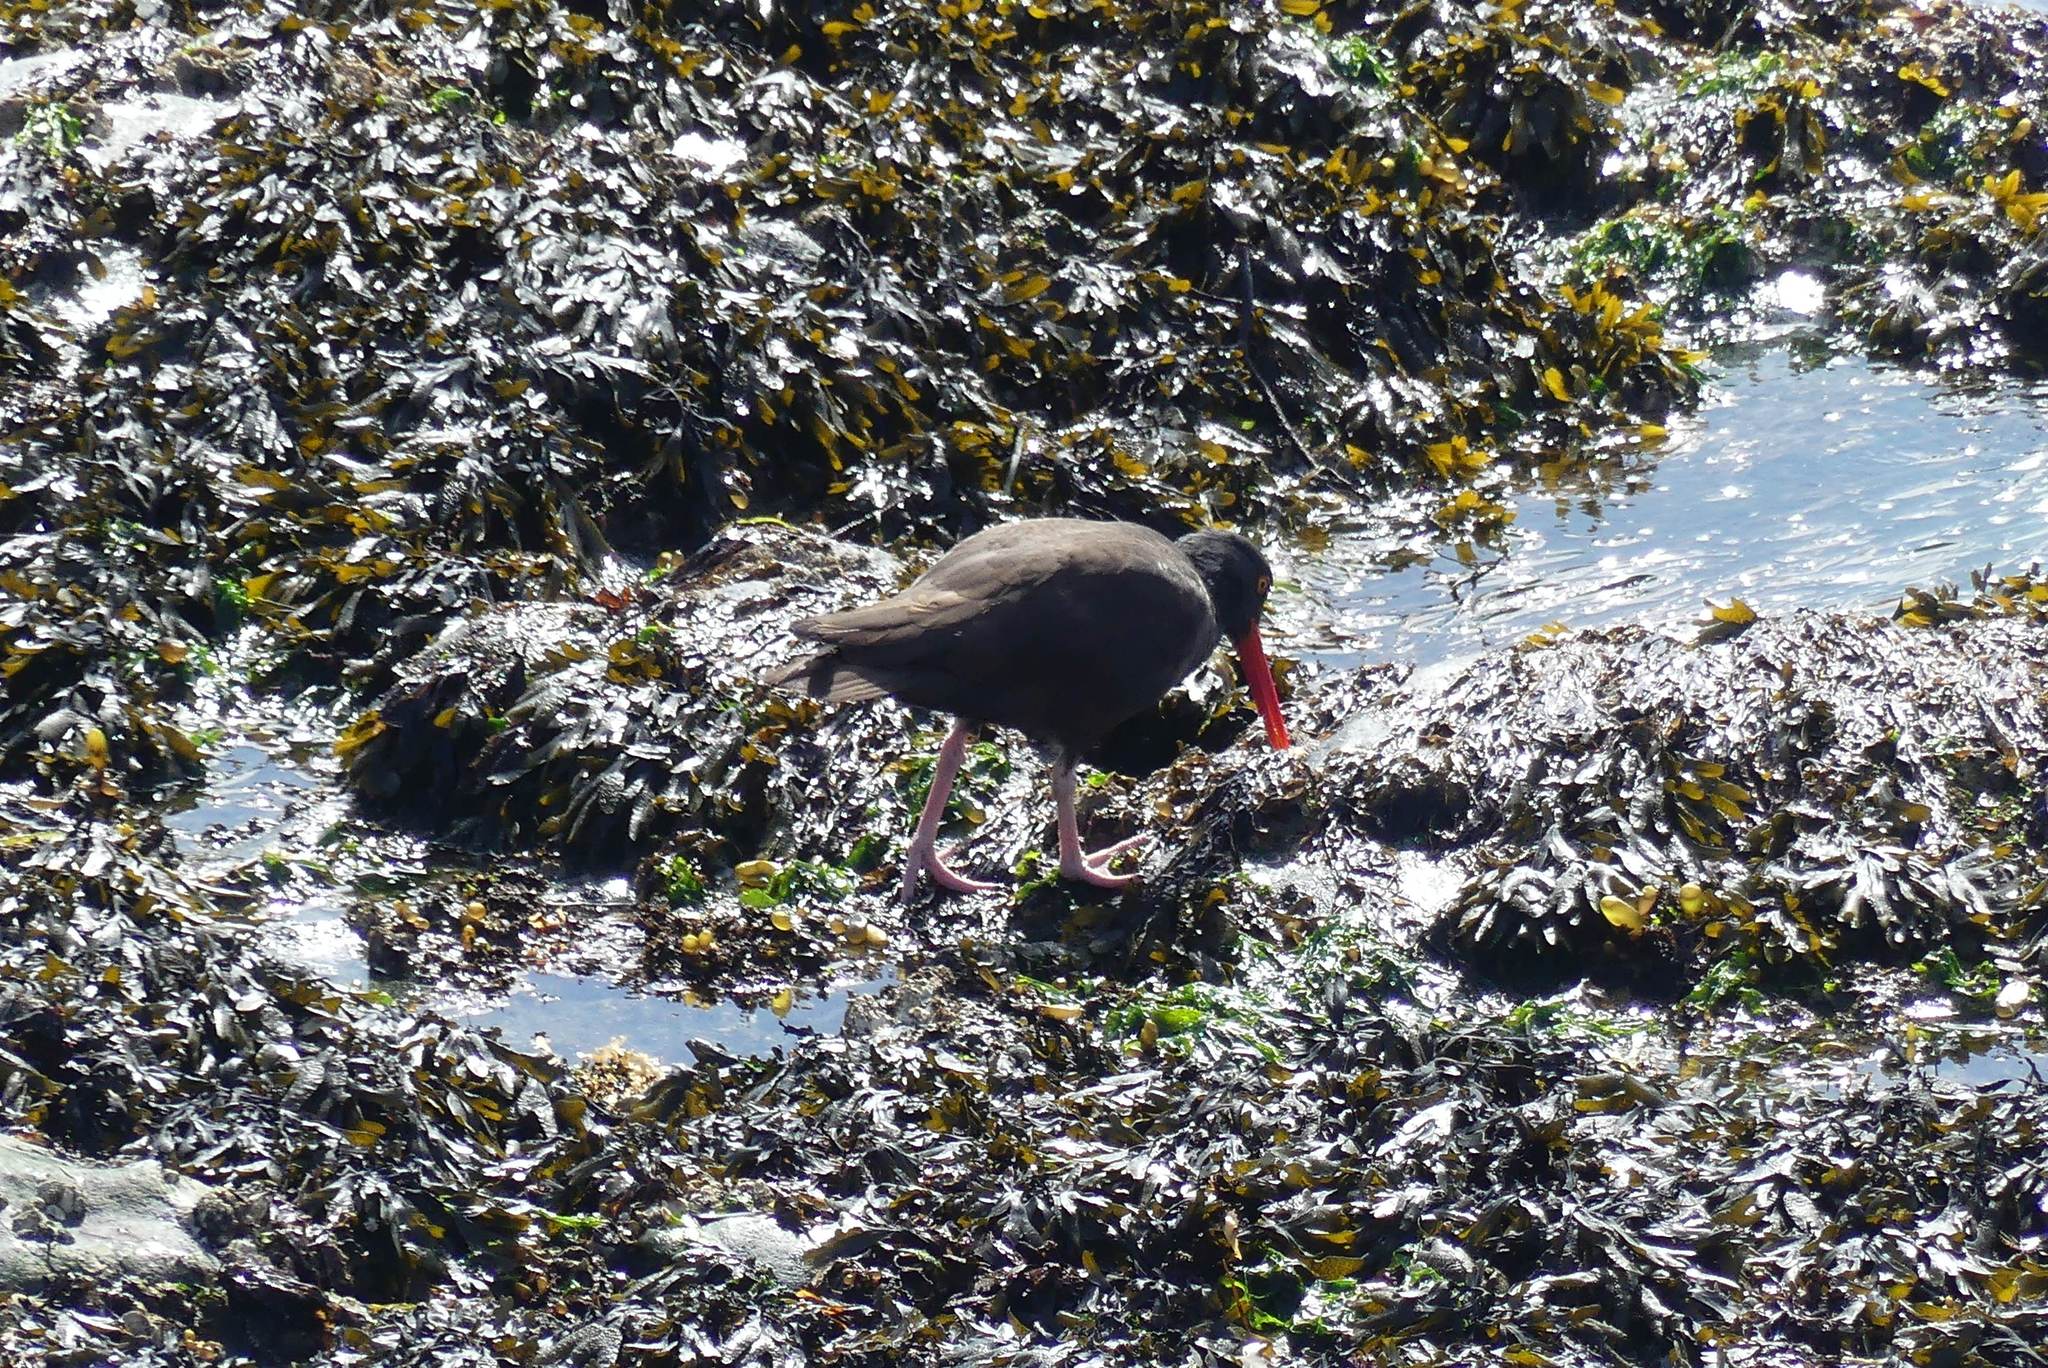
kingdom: Animalia
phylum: Chordata
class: Aves
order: Charadriiformes
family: Haematopodidae
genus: Haematopus
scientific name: Haematopus bachmani
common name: Black oystercatcher
